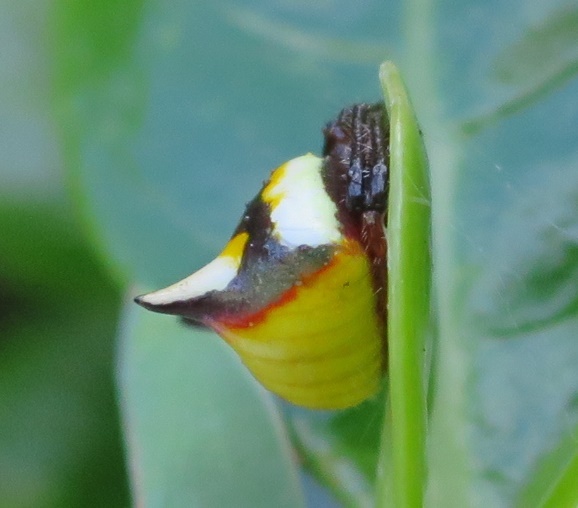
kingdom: Animalia
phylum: Arthropoda
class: Arachnida
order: Araneae
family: Araneidae
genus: Poecilopachys
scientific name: Poecilopachys australasia
